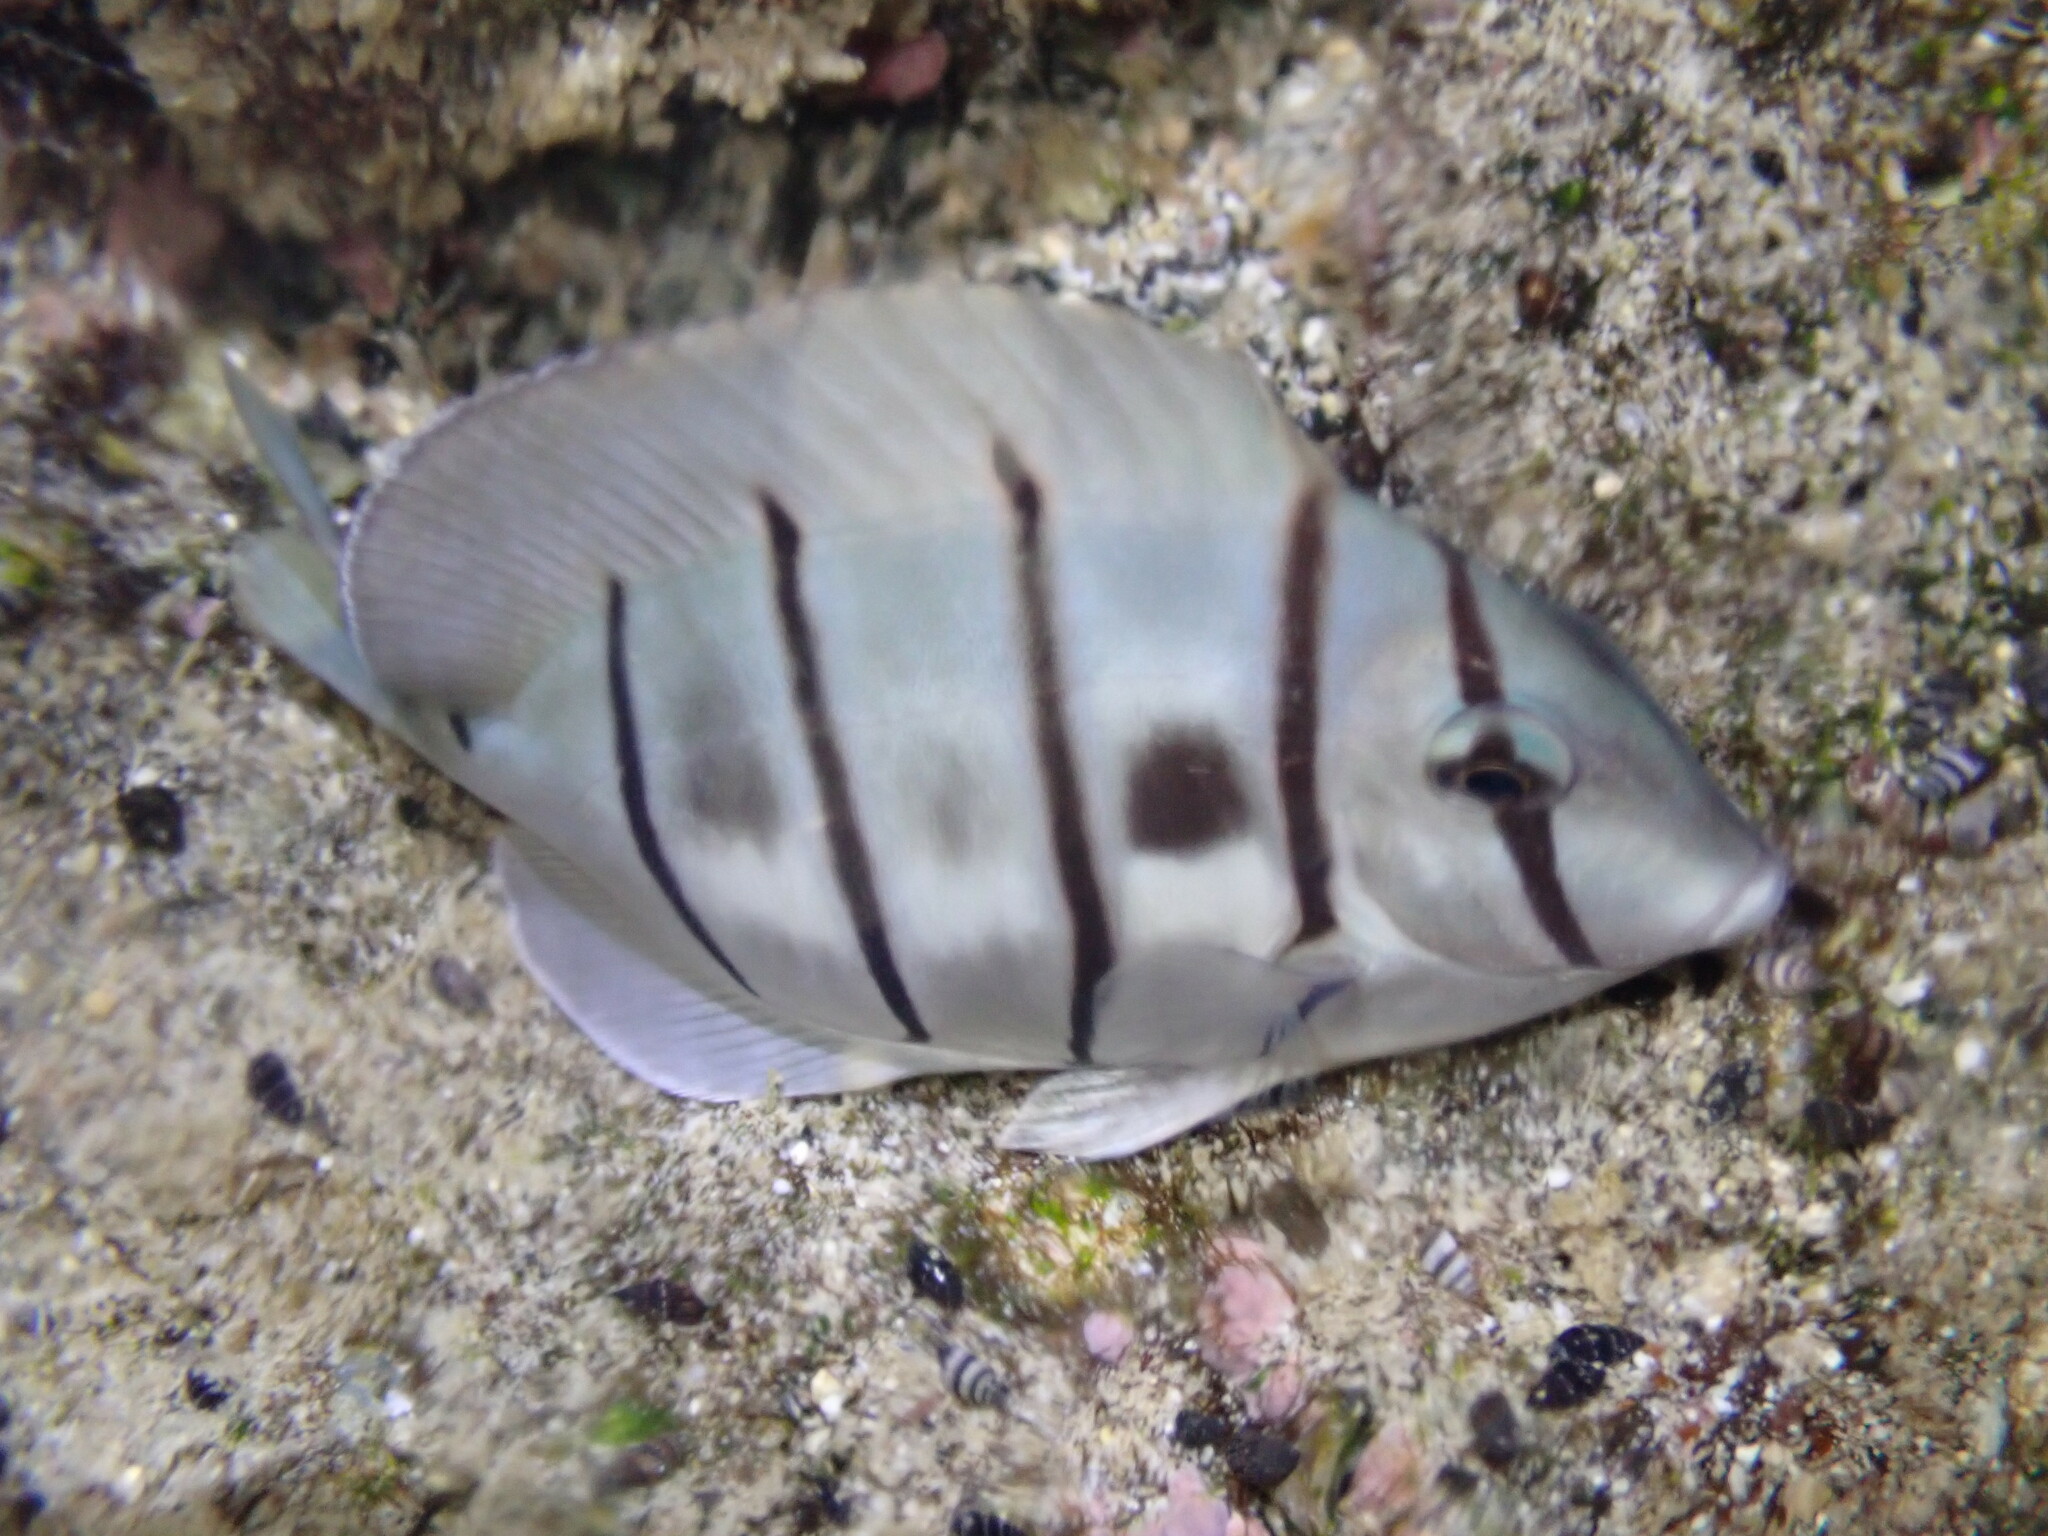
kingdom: Animalia
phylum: Chordata
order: Perciformes
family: Acanthuridae
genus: Acanthurus
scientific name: Acanthurus triostegus
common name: Convict surgeonfish
